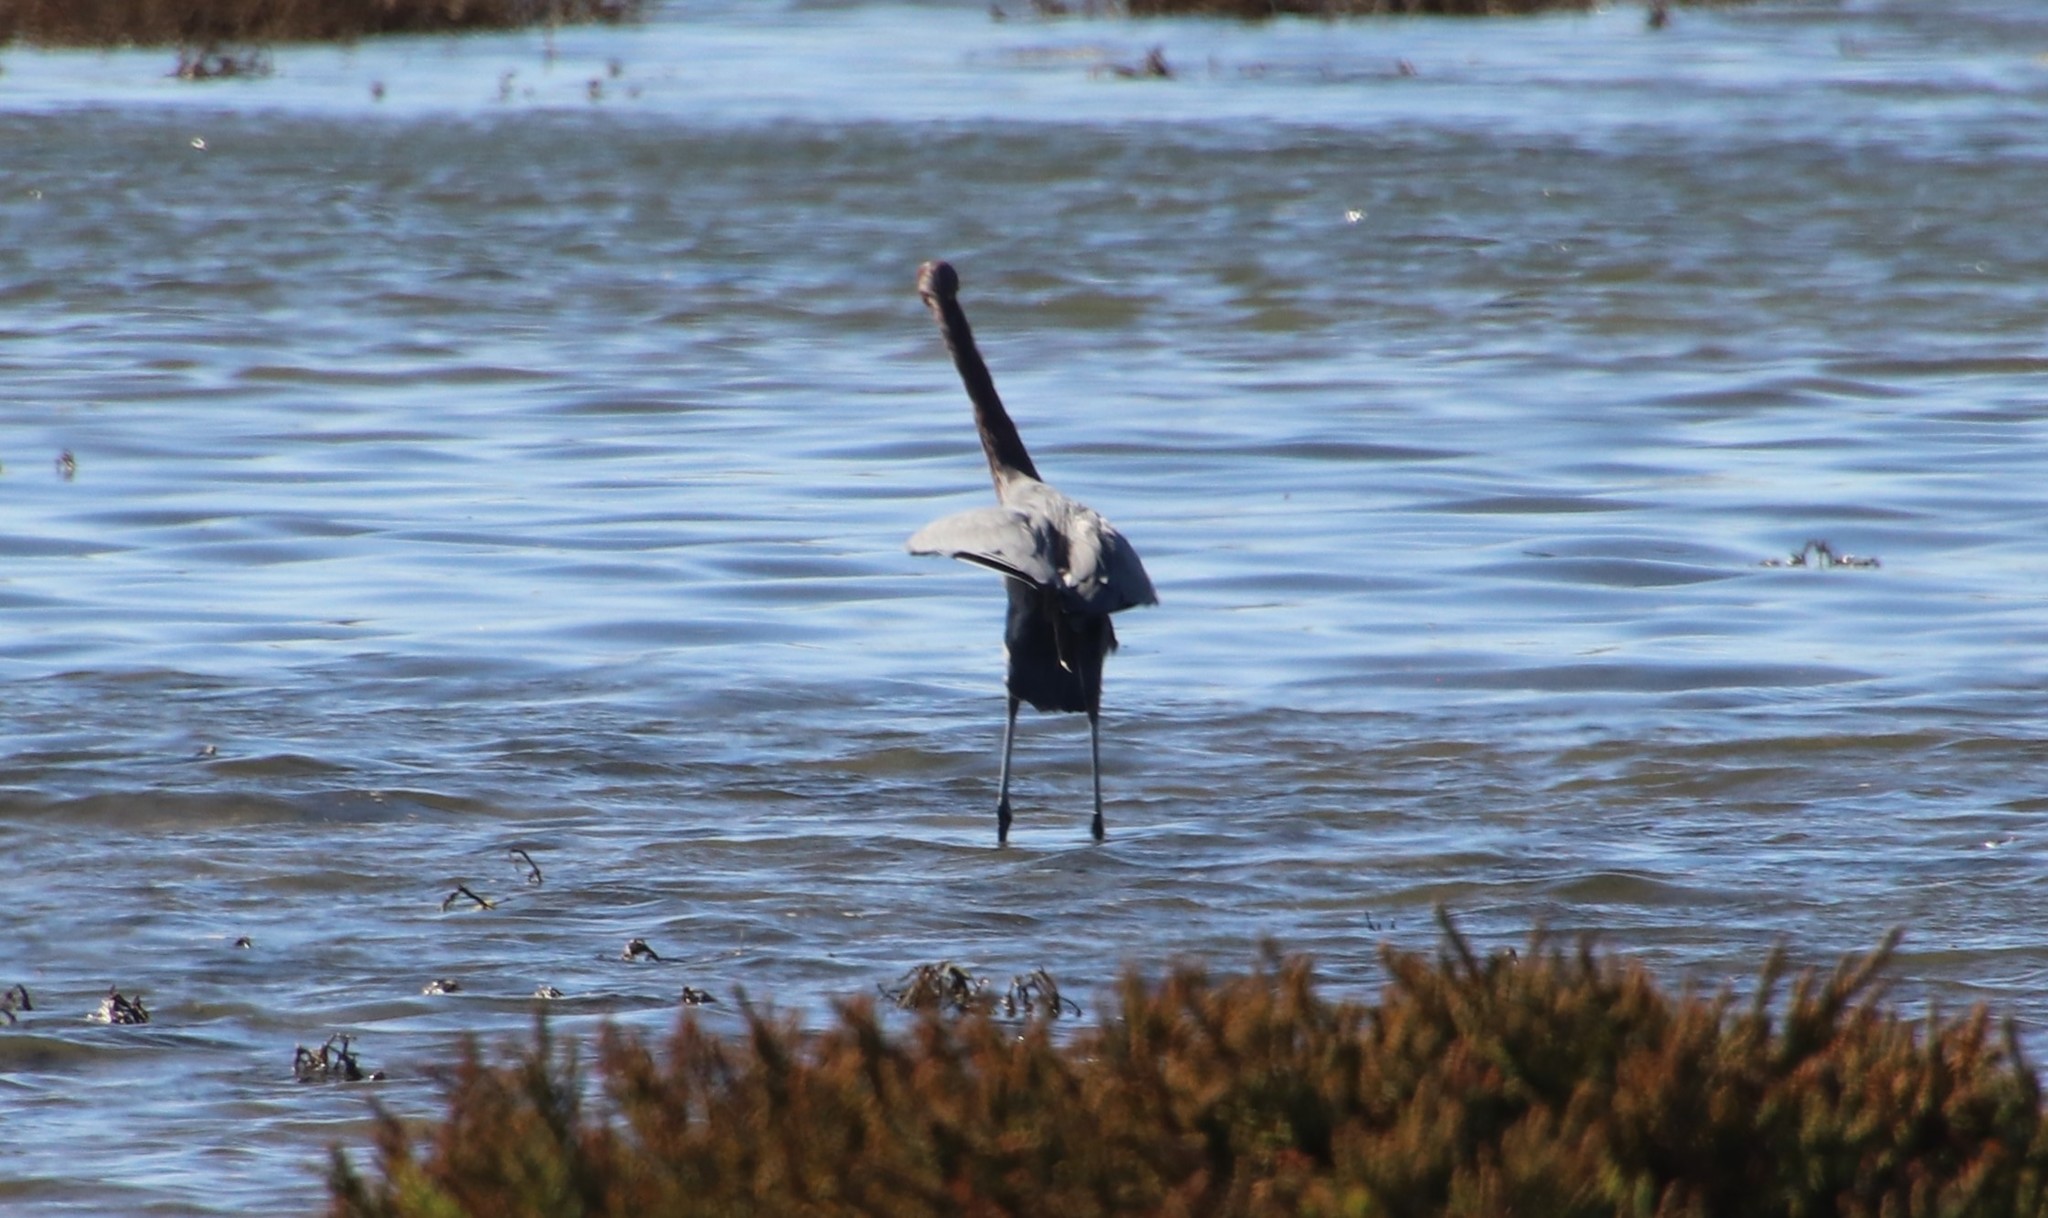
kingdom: Animalia
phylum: Chordata
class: Aves
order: Pelecaniformes
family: Ardeidae
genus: Egretta
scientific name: Egretta rufescens
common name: Reddish egret
